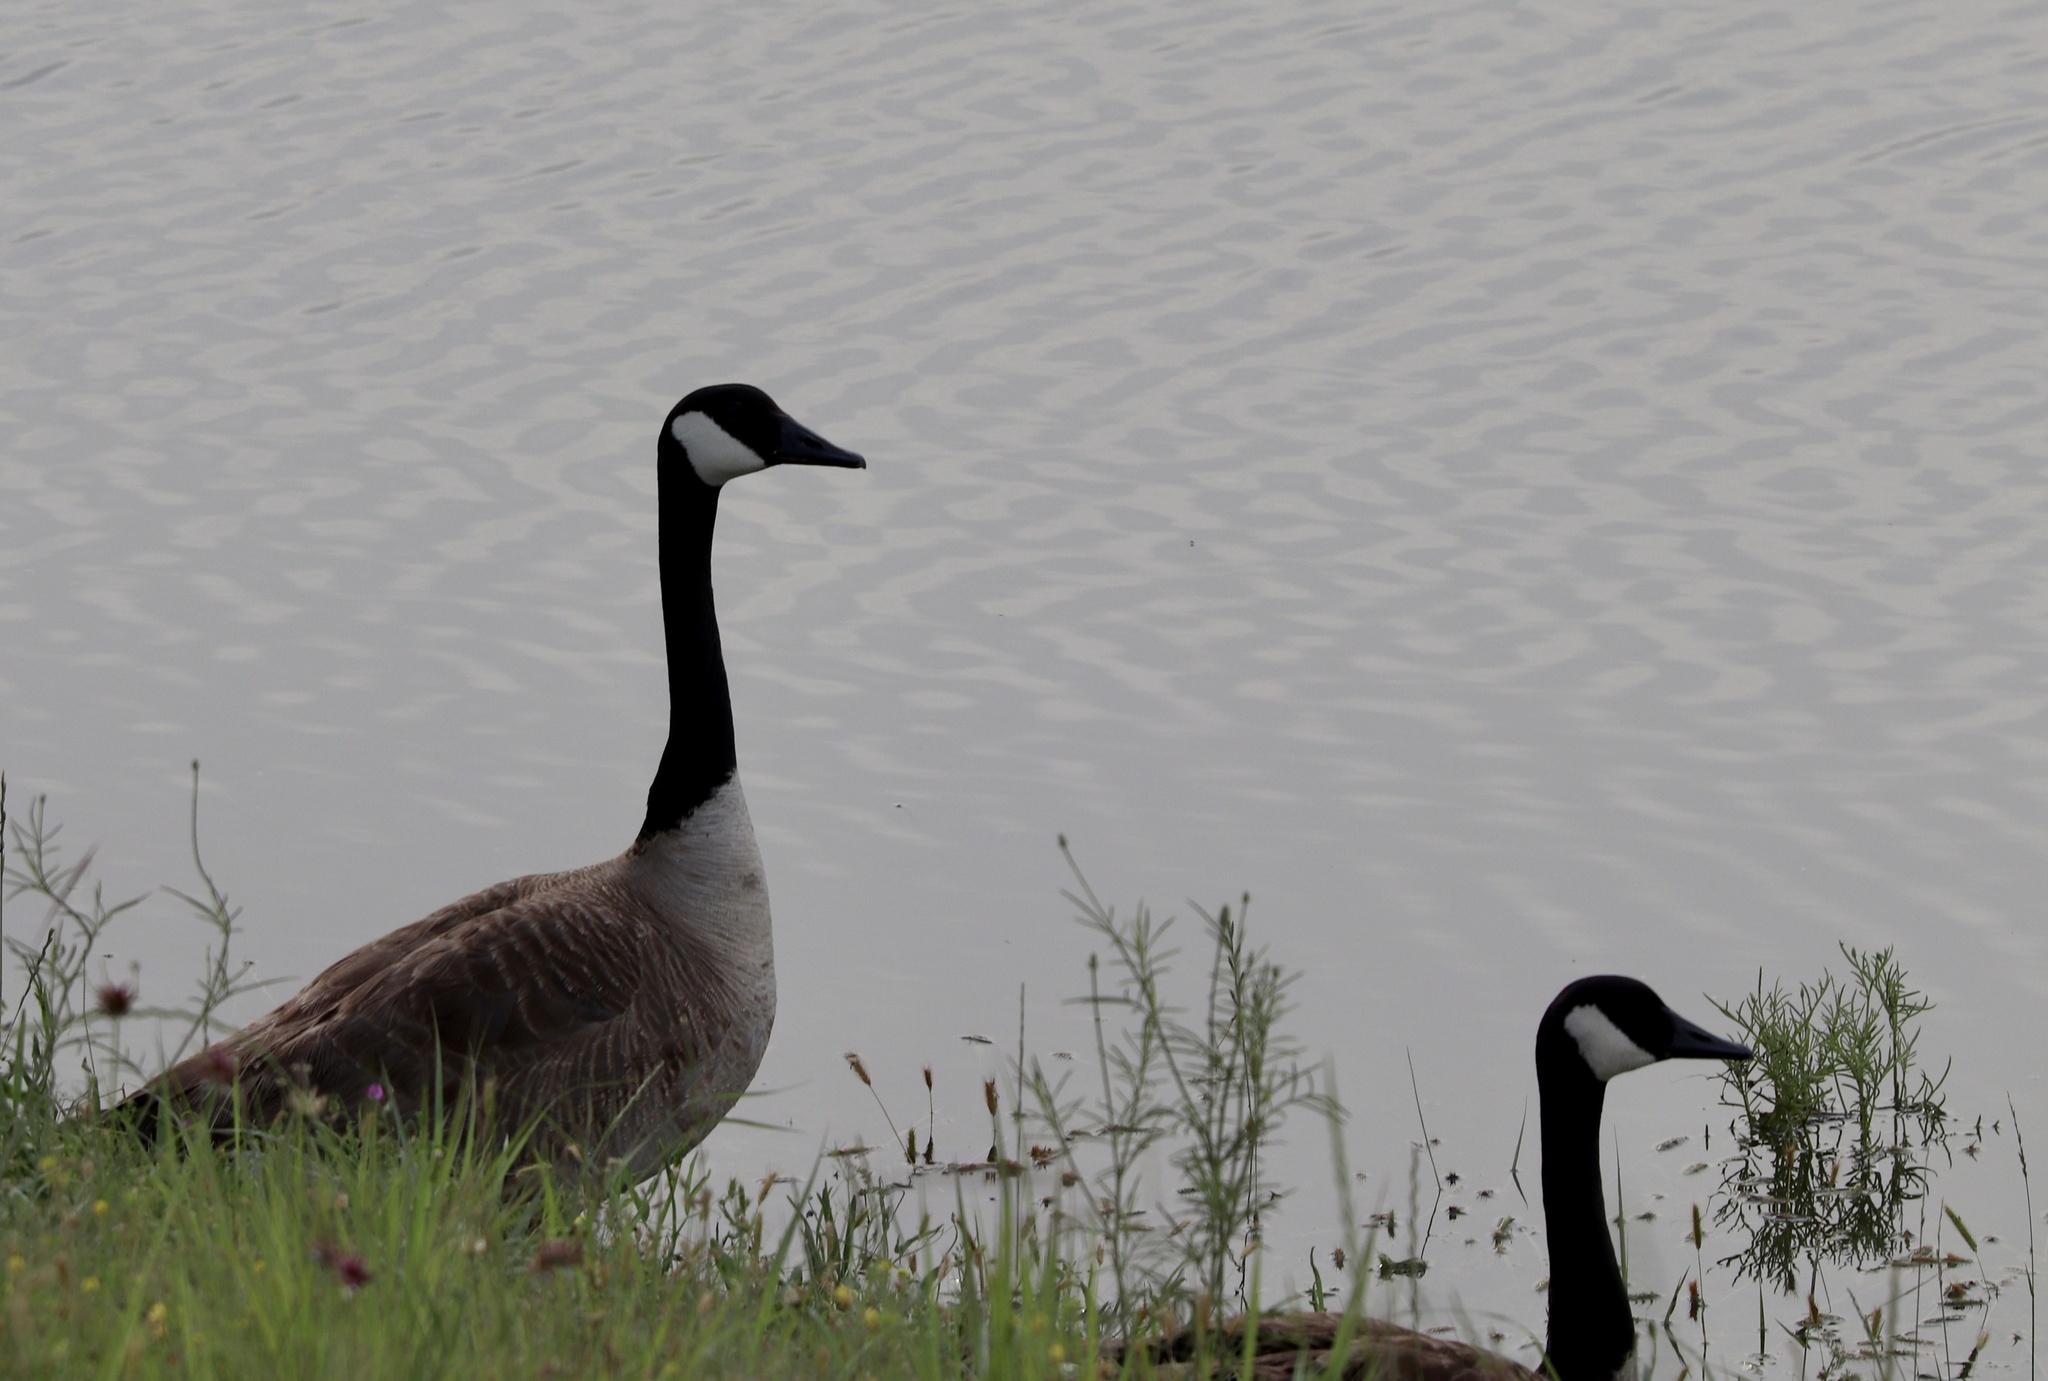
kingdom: Animalia
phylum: Chordata
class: Aves
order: Anseriformes
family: Anatidae
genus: Branta
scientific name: Branta canadensis
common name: Canada goose
